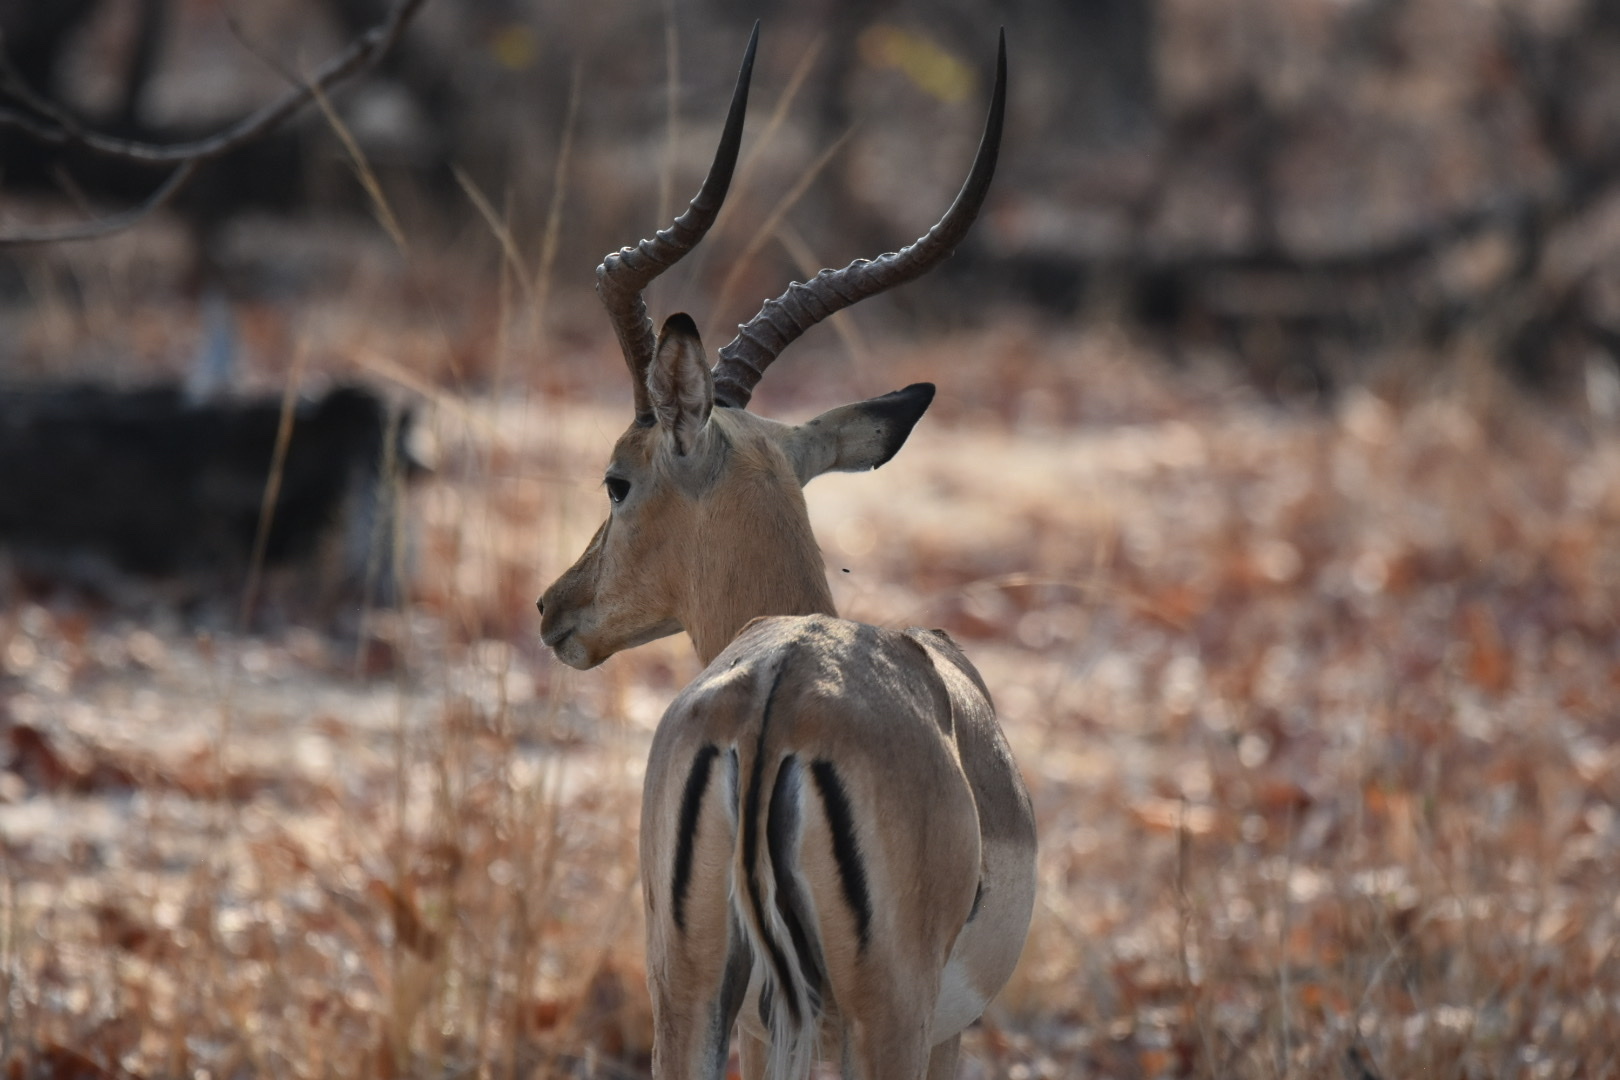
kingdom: Animalia
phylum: Chordata
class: Mammalia
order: Artiodactyla
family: Bovidae
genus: Aepyceros
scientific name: Aepyceros melampus
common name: Impala
